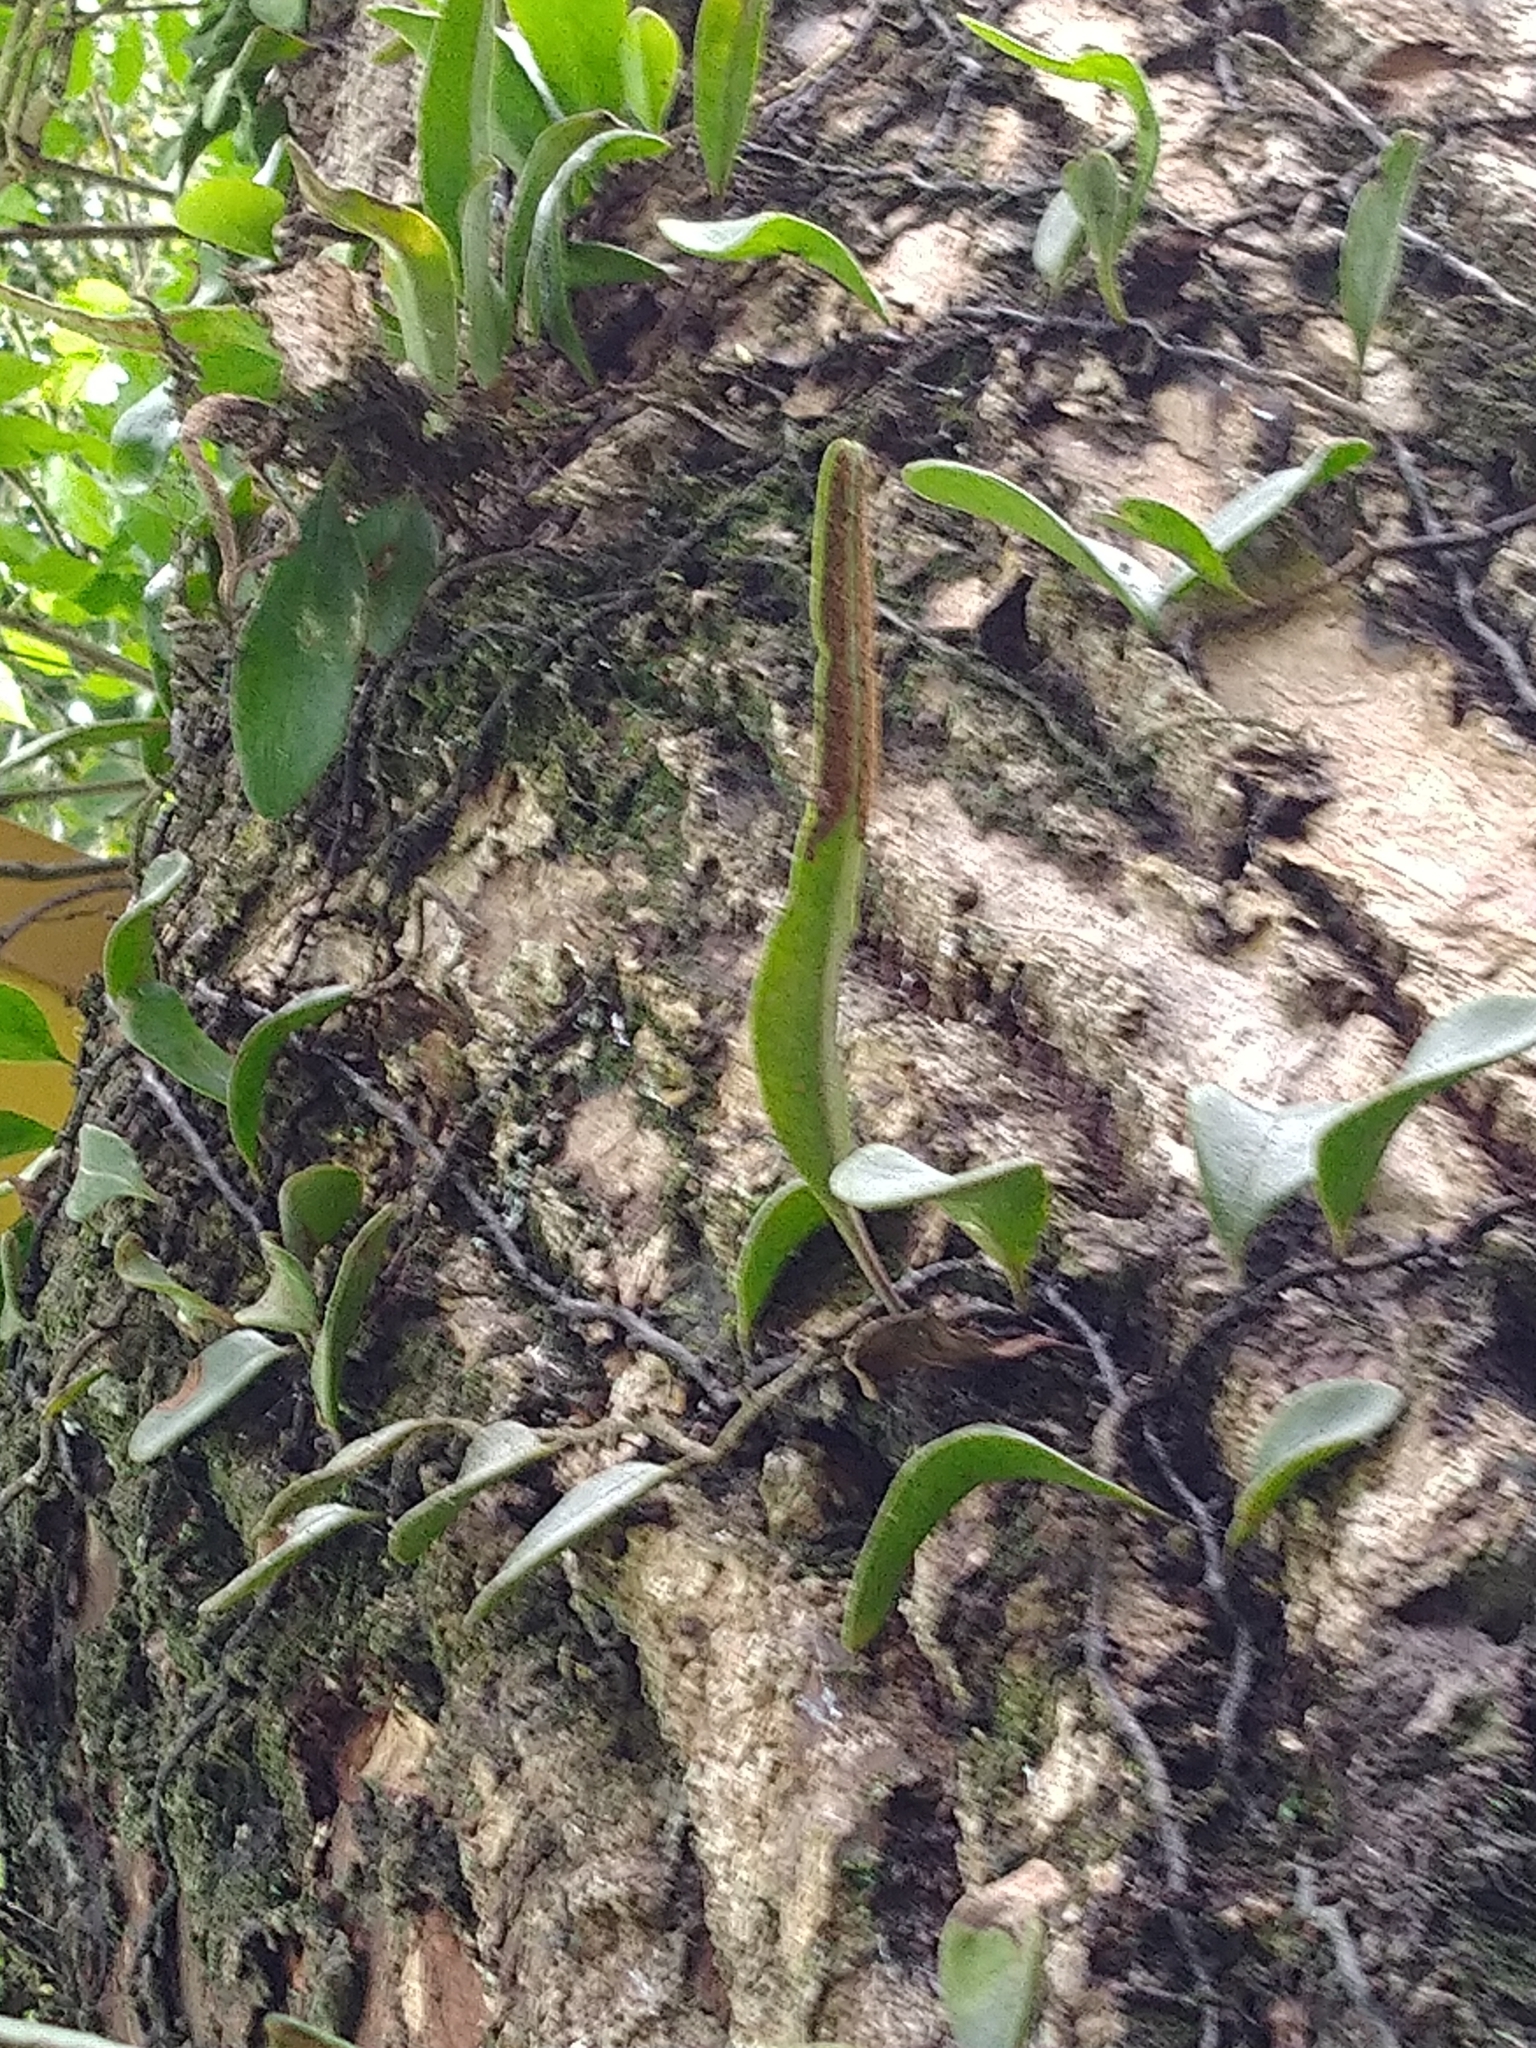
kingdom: Plantae
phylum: Tracheophyta
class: Polypodiopsida
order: Polypodiales
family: Polypodiaceae
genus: Pyrrosia
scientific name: Pyrrosia lanceolata
